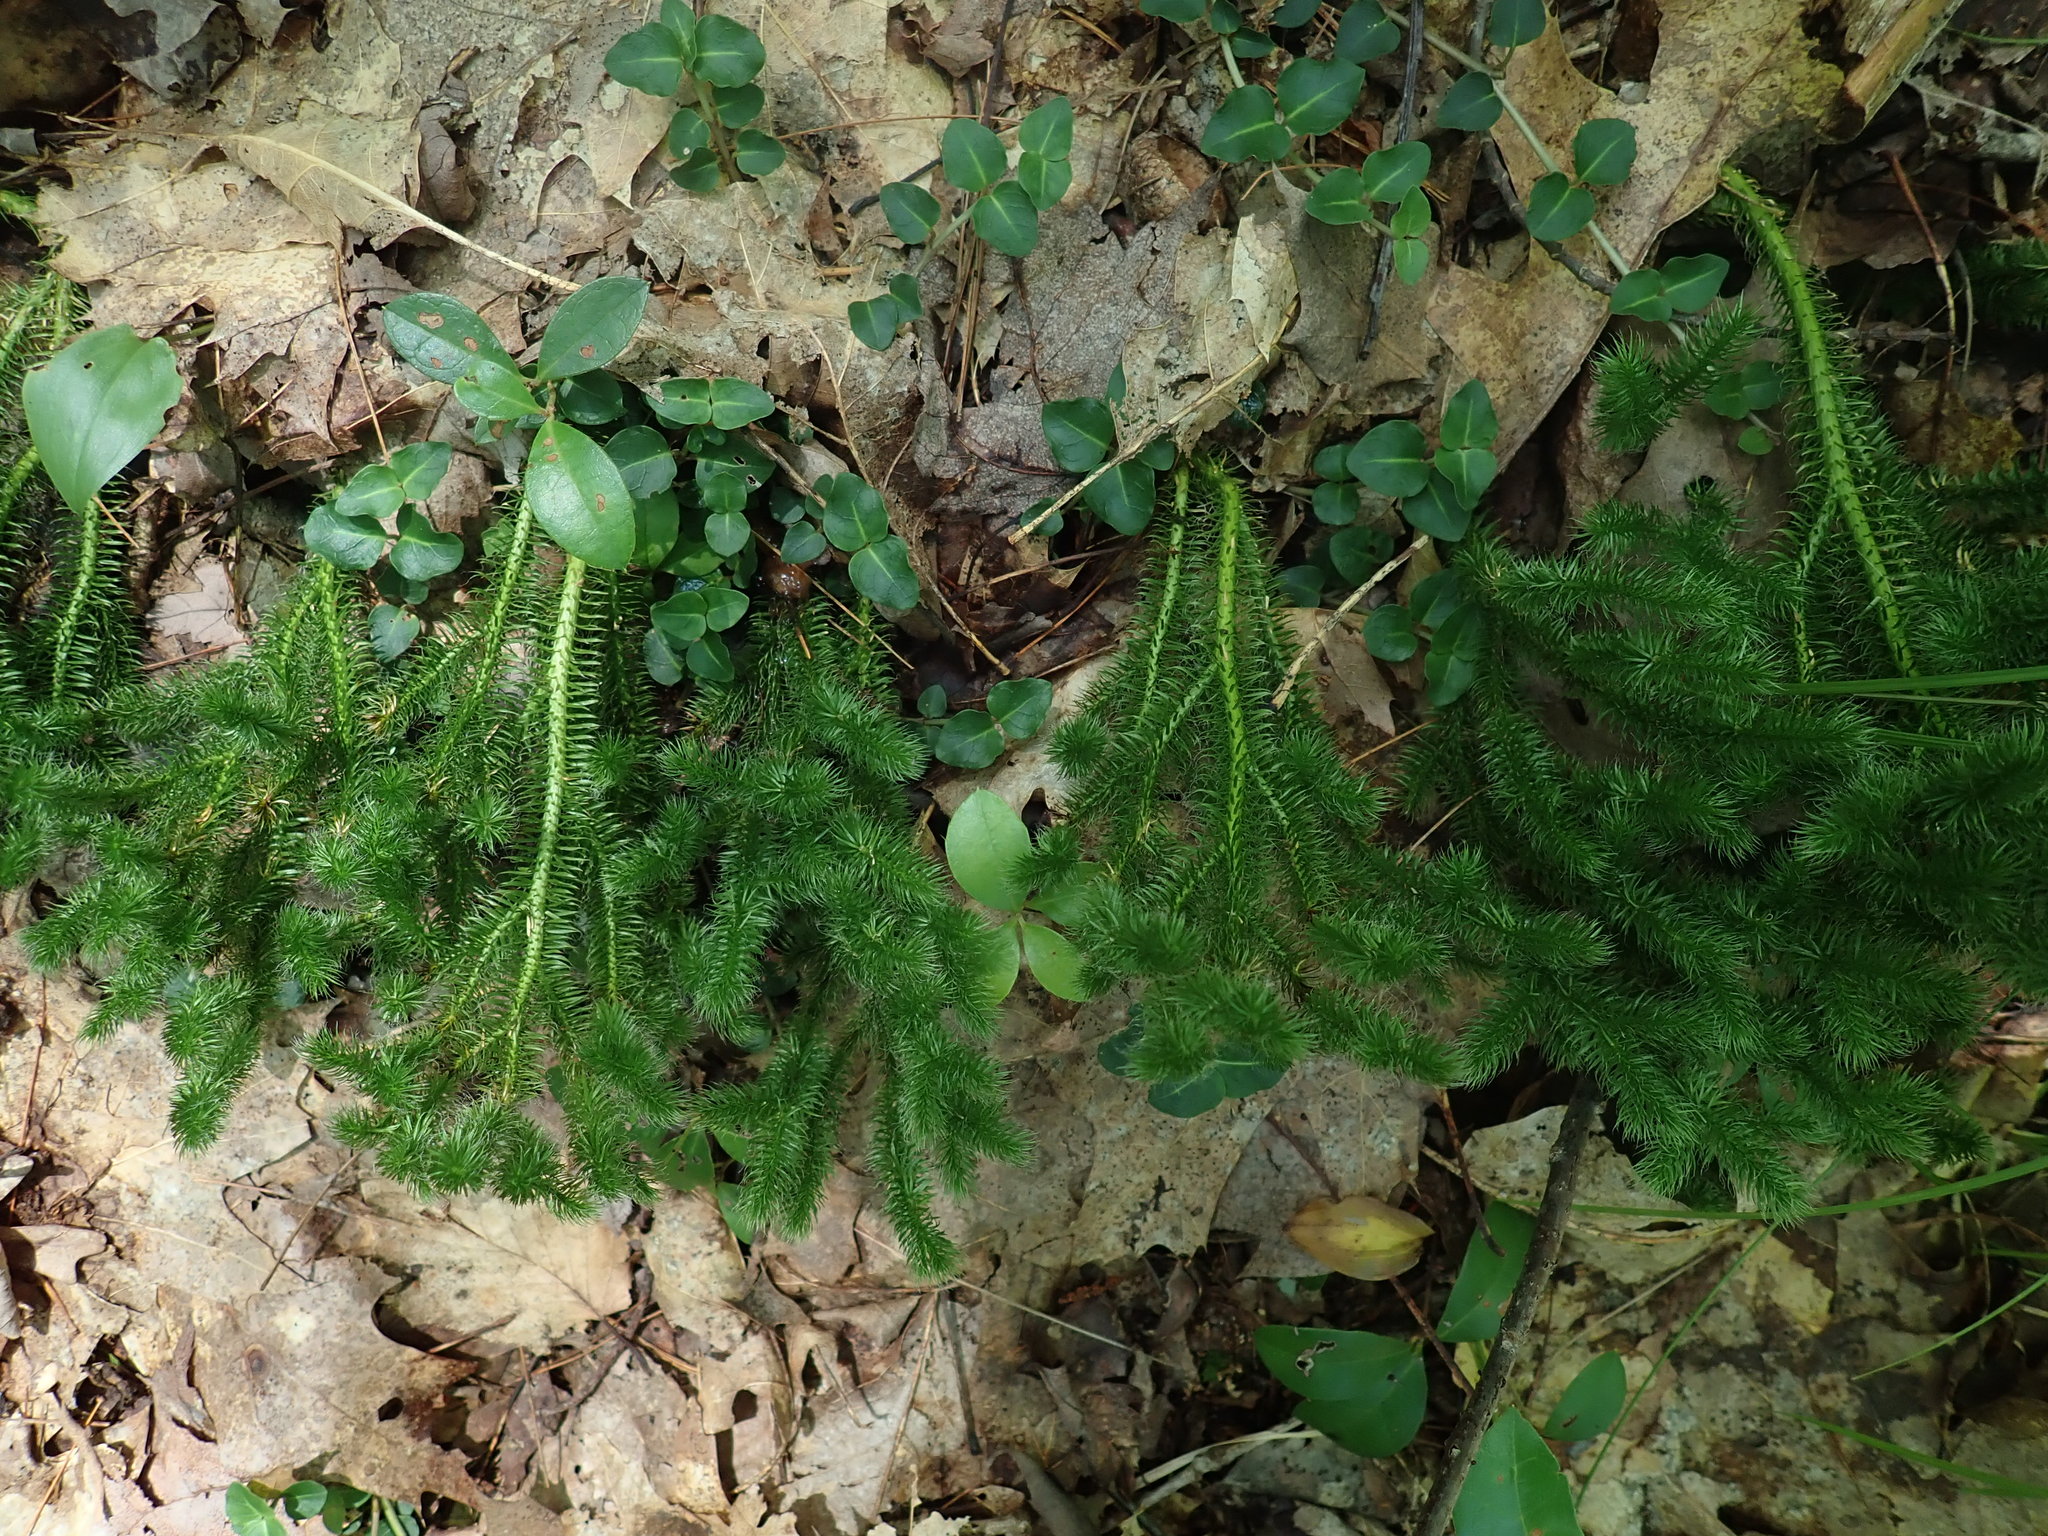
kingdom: Plantae
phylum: Tracheophyta
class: Lycopodiopsida
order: Lycopodiales
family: Lycopodiaceae
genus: Lycopodium
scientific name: Lycopodium clavatum
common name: Stag's-horn clubmoss
